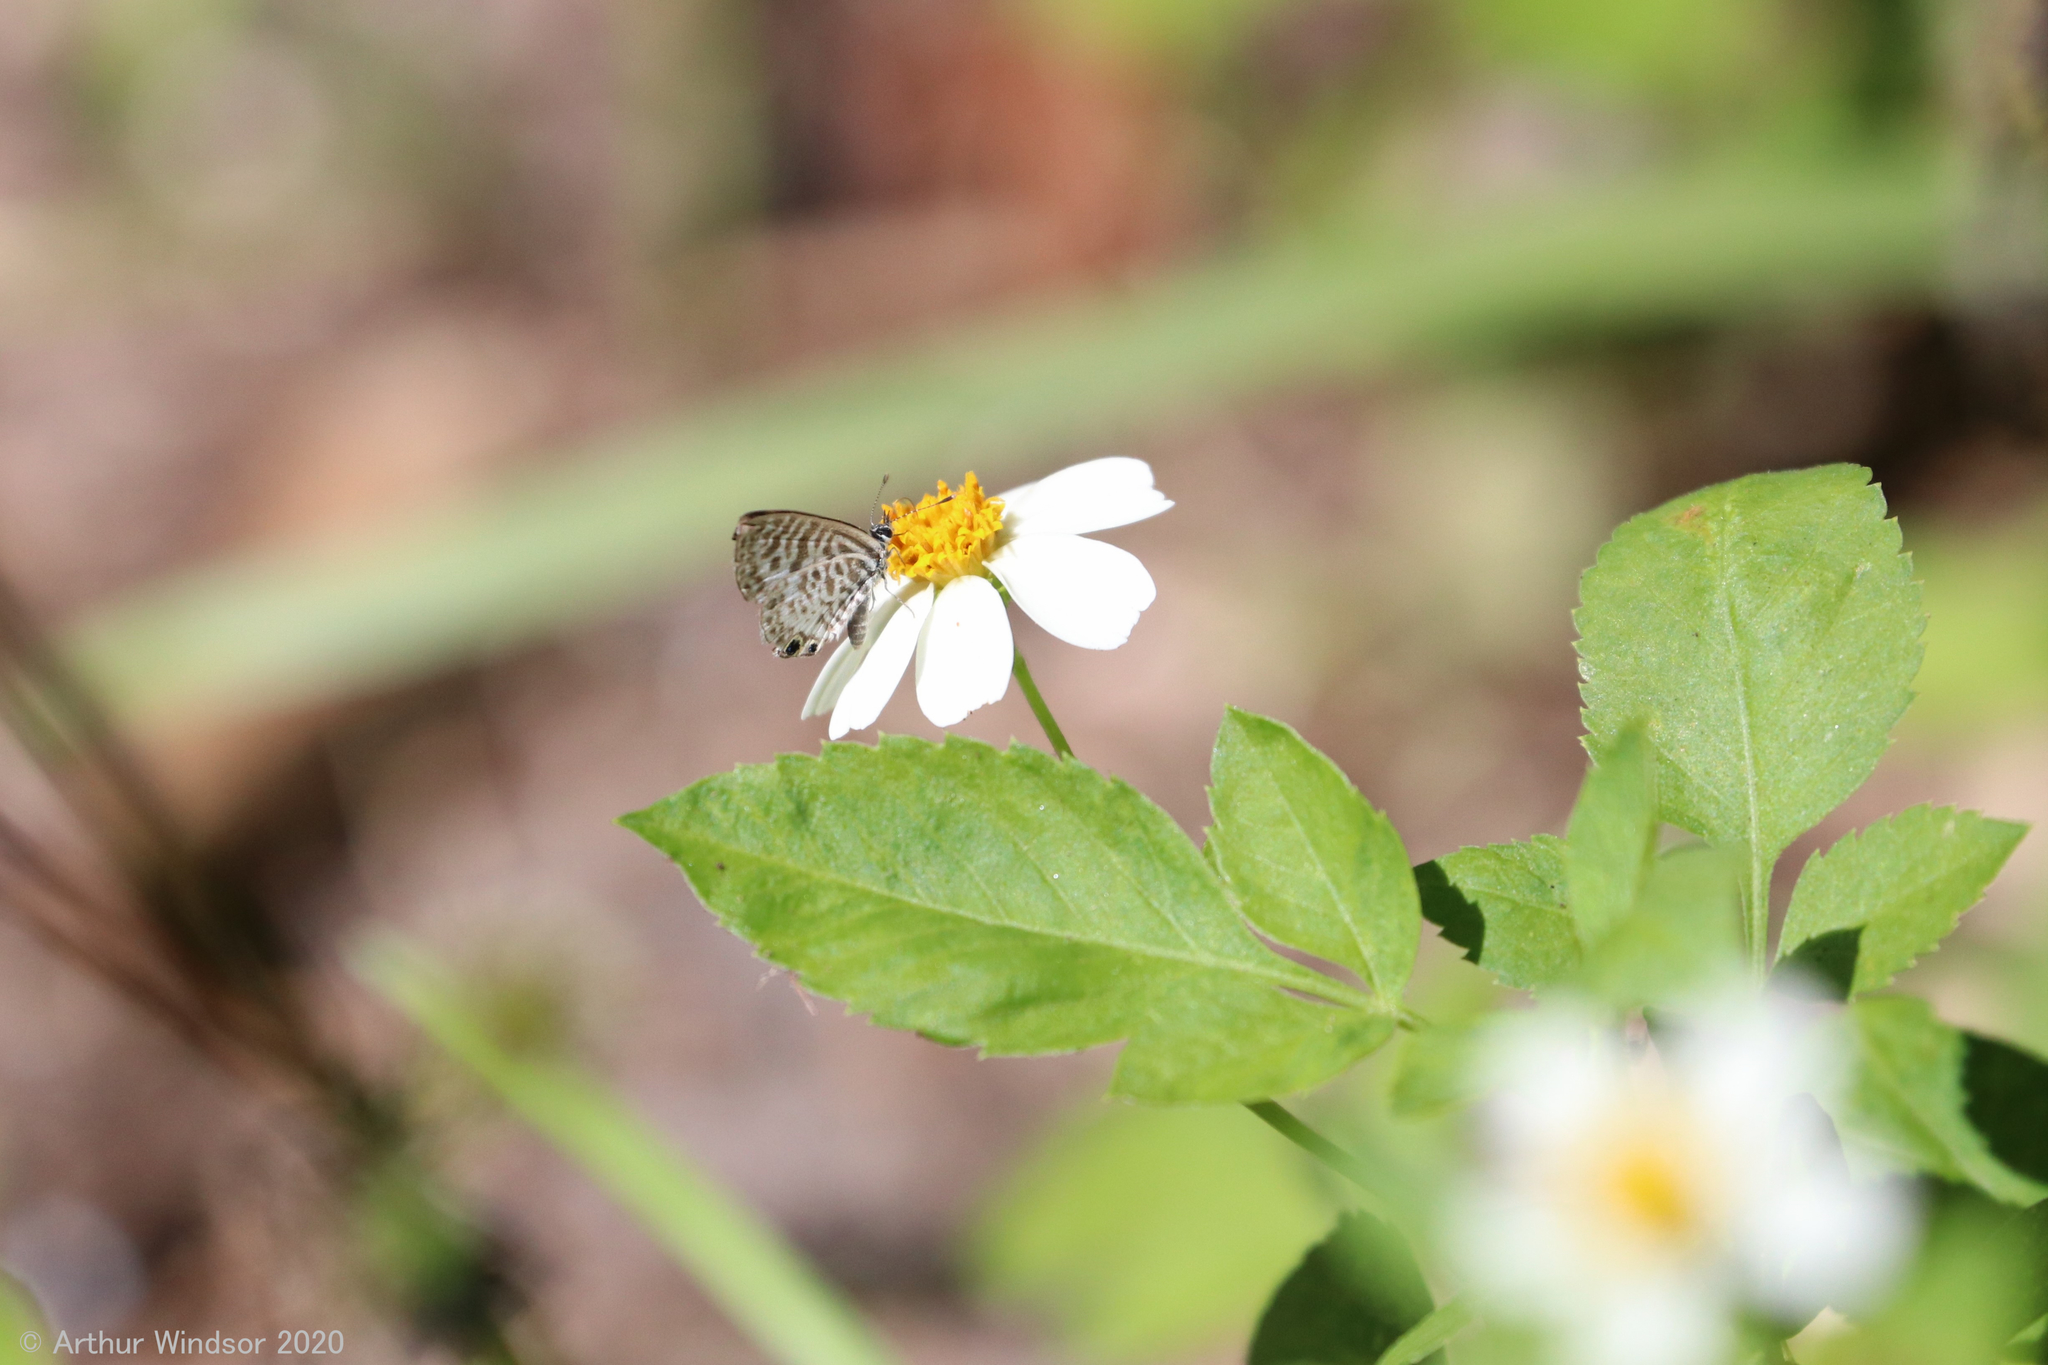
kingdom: Animalia
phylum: Arthropoda
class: Insecta
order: Lepidoptera
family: Lycaenidae
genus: Leptotes
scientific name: Leptotes cassius
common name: Cassius blue
